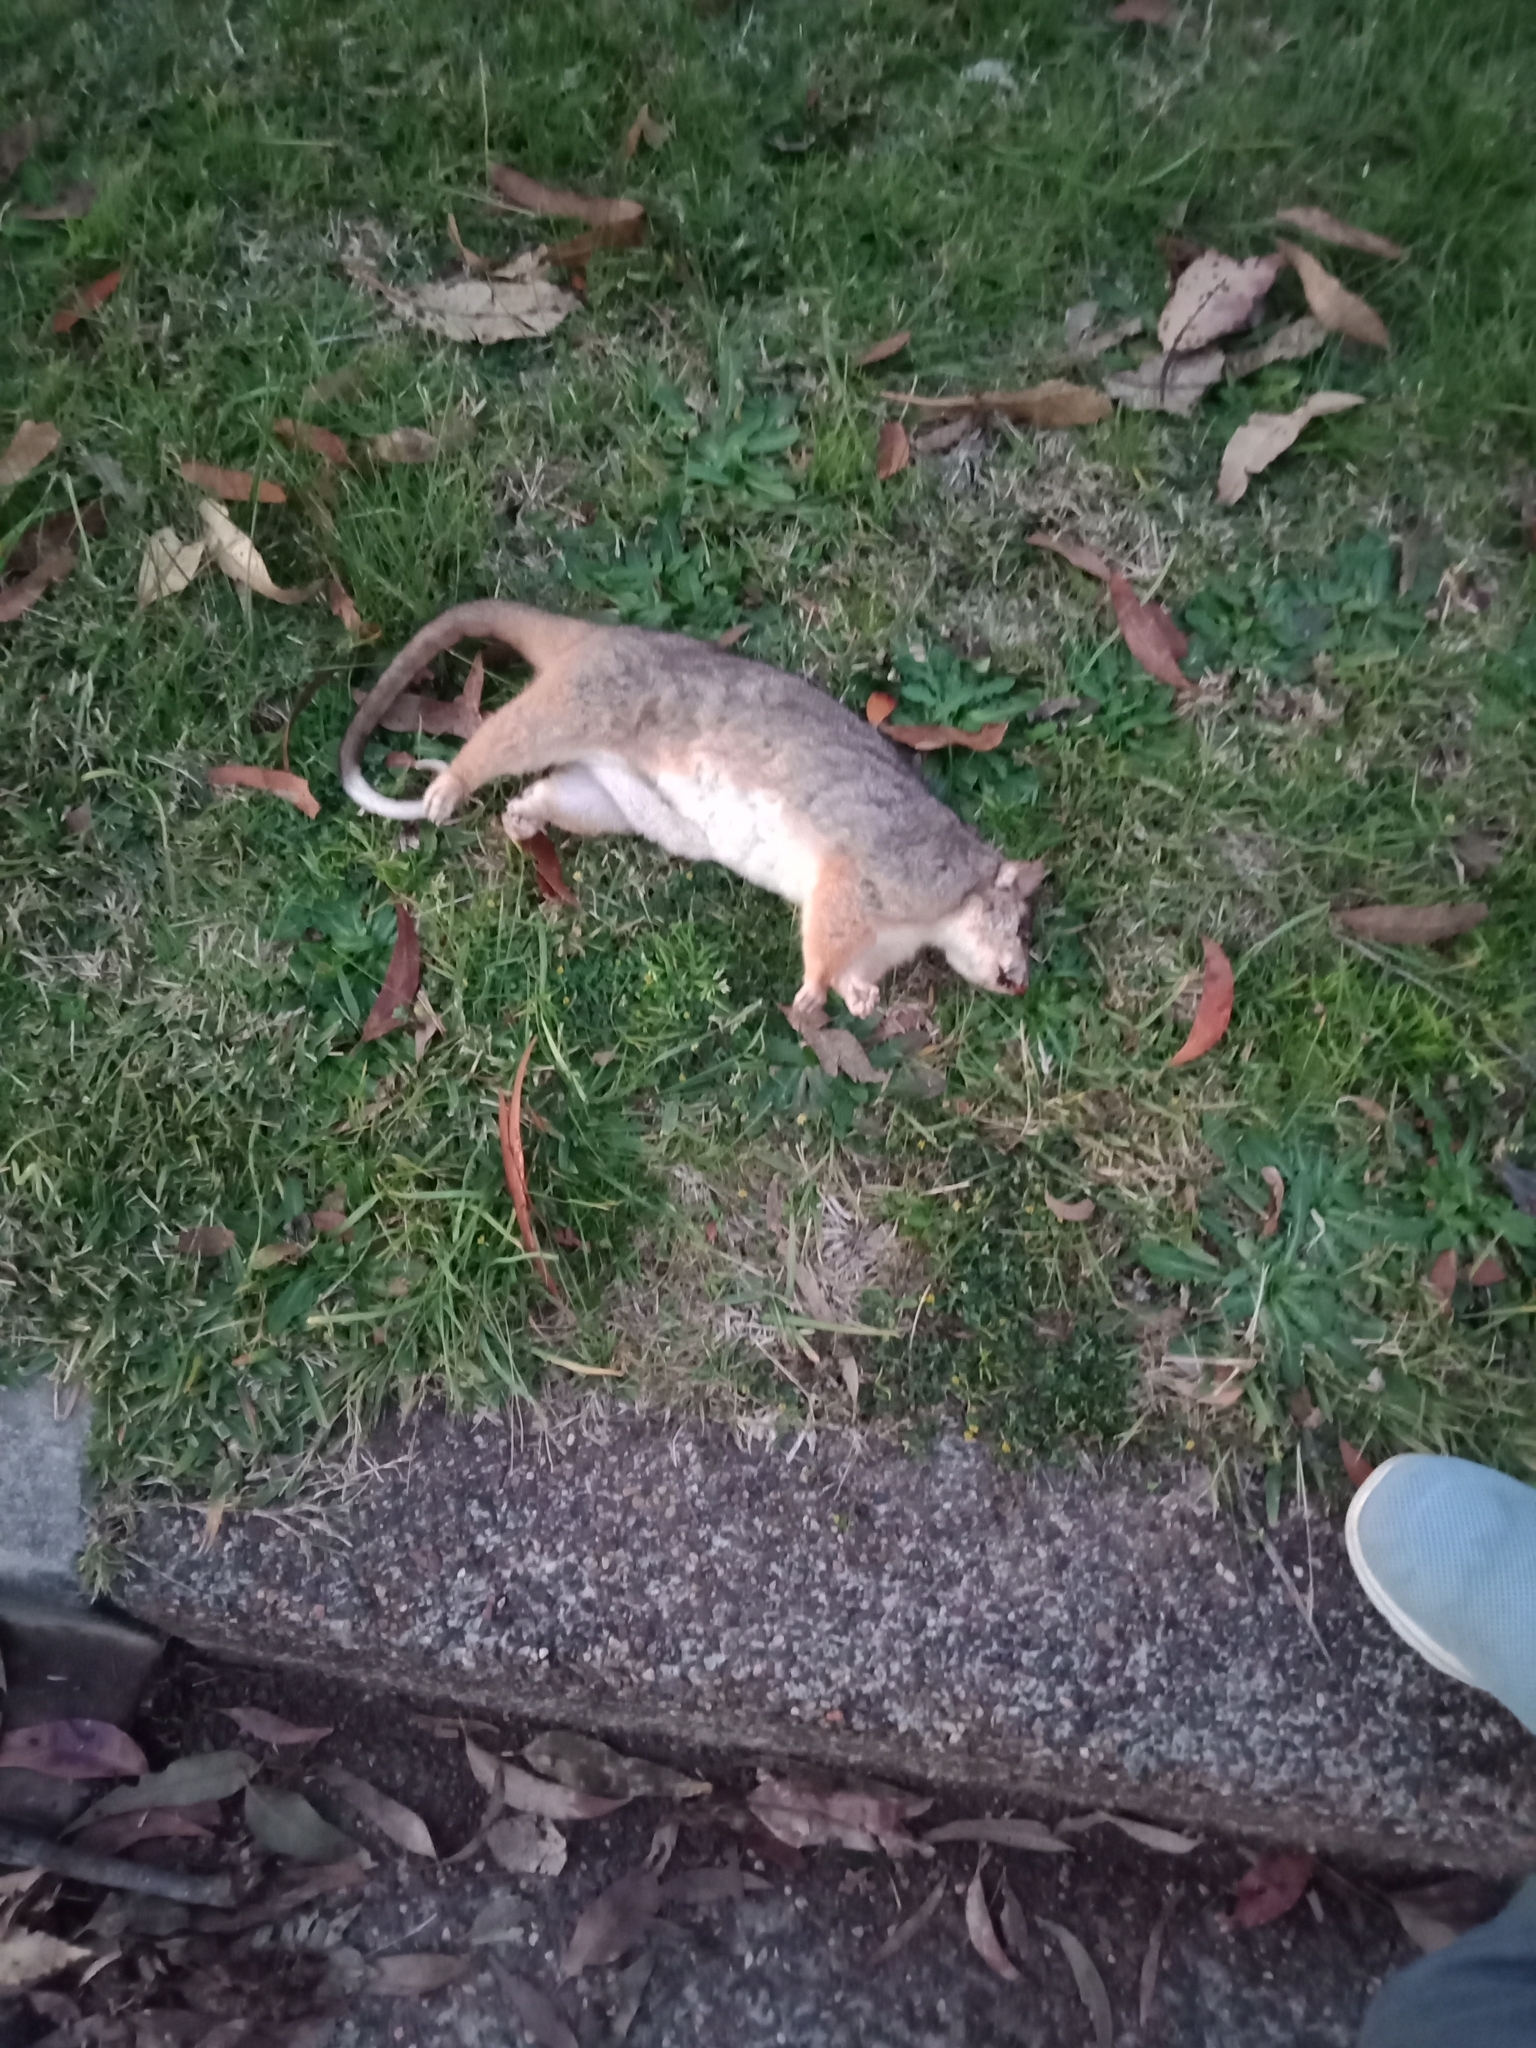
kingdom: Animalia
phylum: Chordata
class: Mammalia
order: Diprotodontia
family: Phalangeridae
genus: Trichosurus
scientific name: Trichosurus vulpecula
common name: Common brushtail
